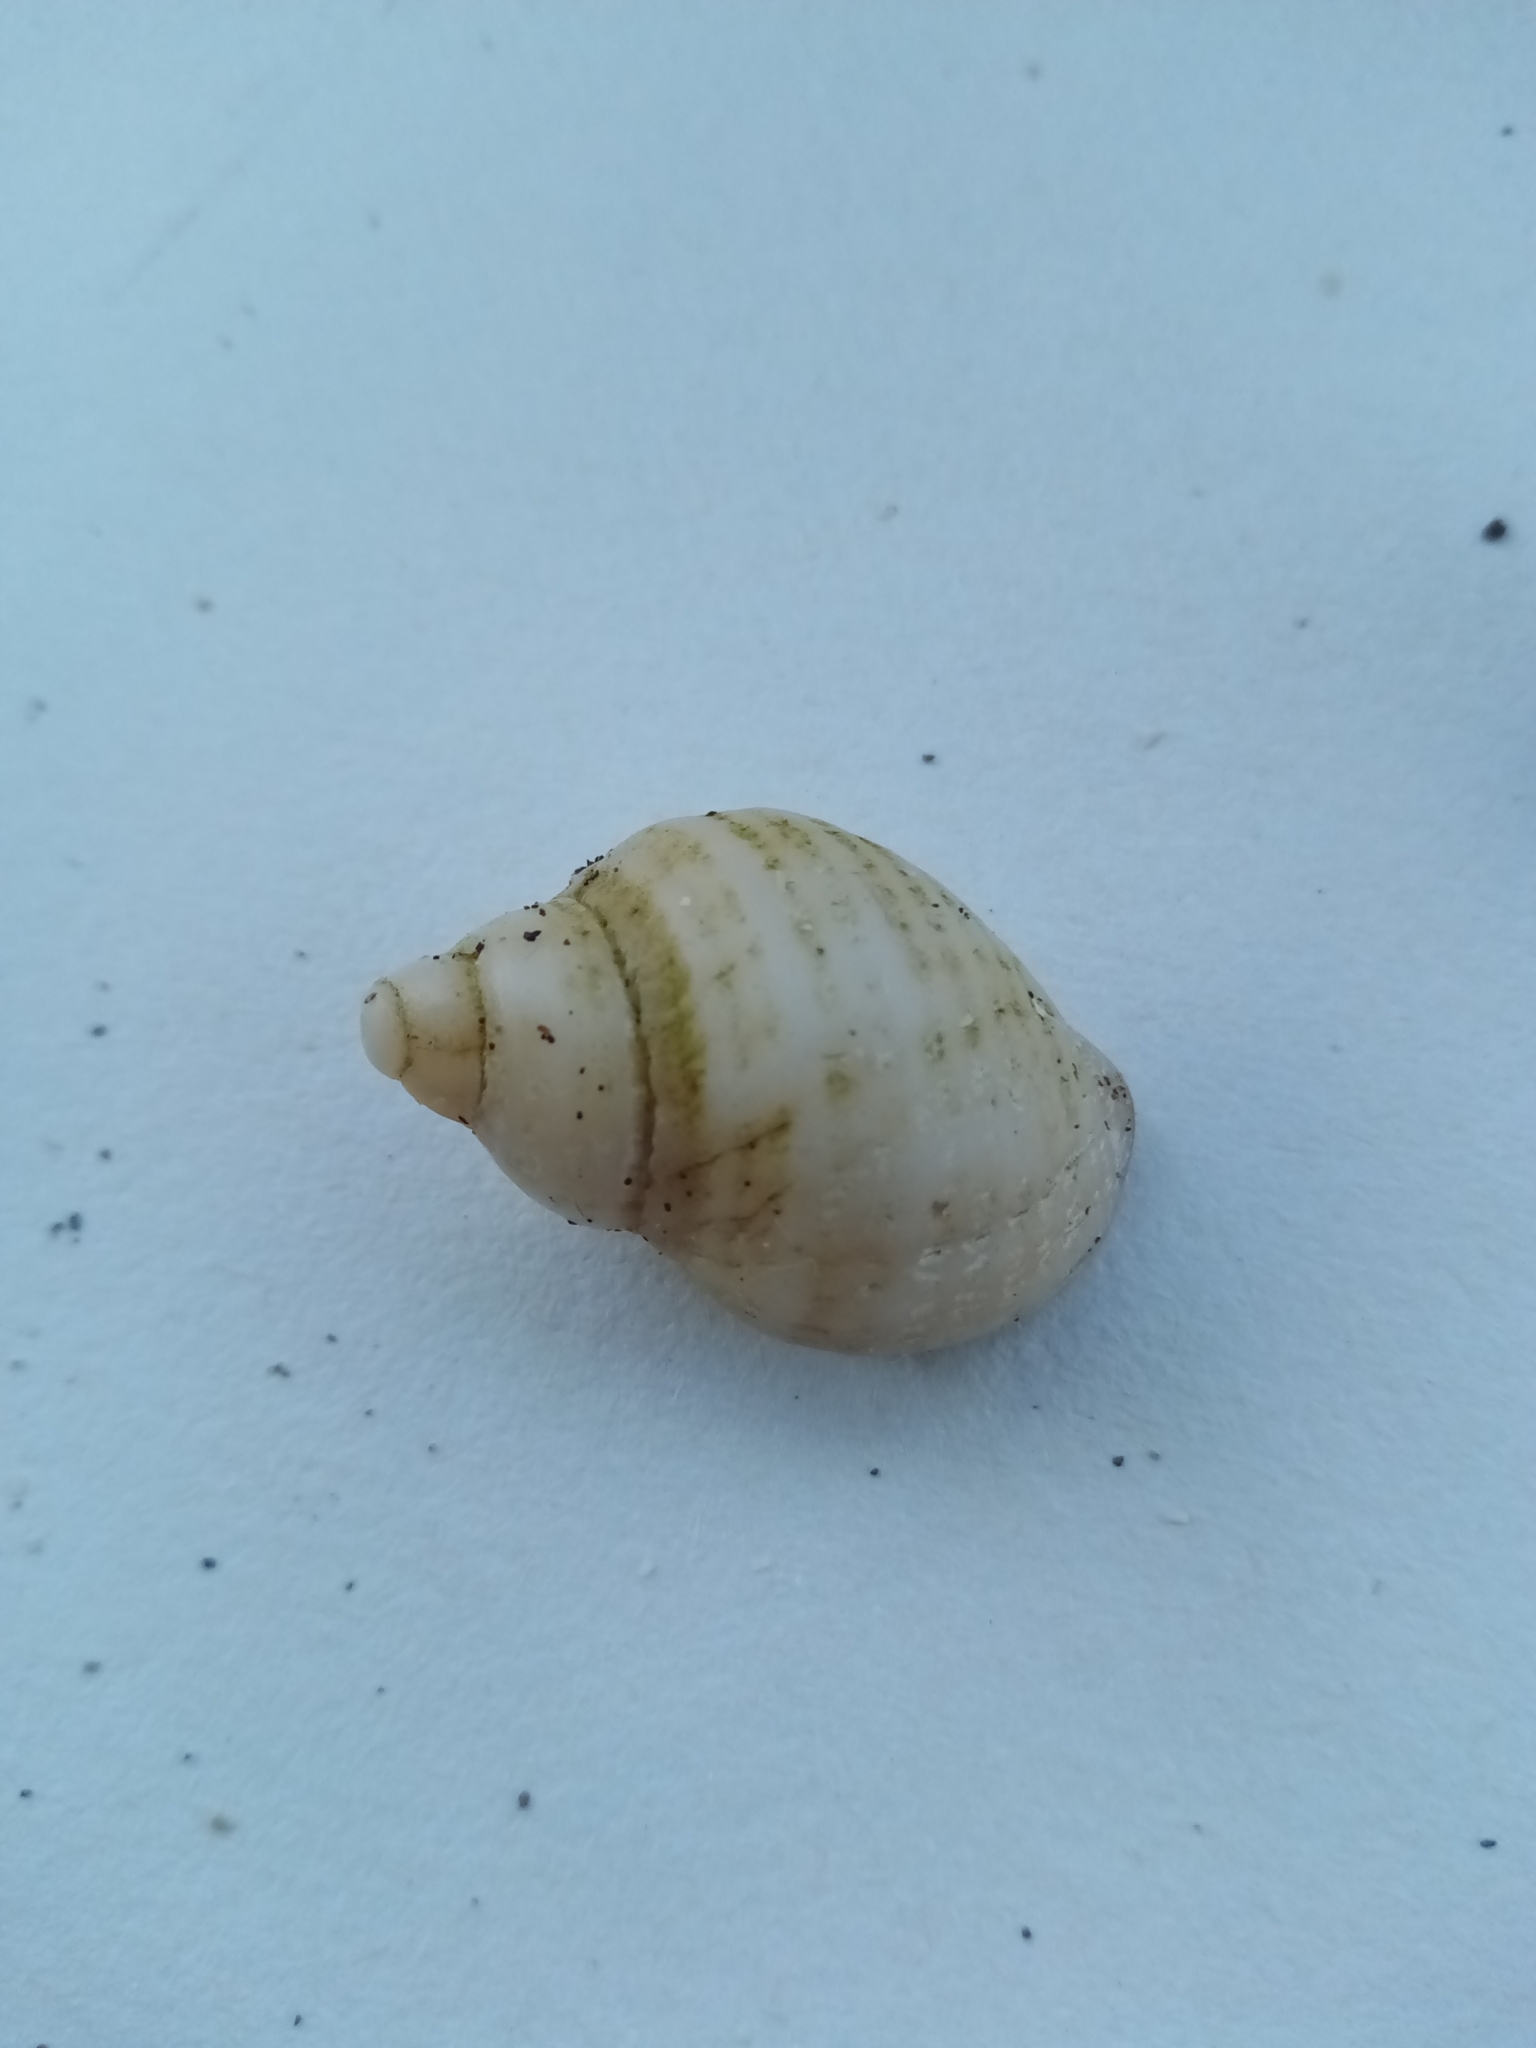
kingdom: Animalia
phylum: Mollusca
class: Gastropoda
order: Neogastropoda
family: Muricidae
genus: Nucella
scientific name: Nucella lapillus
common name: Dog whelk
